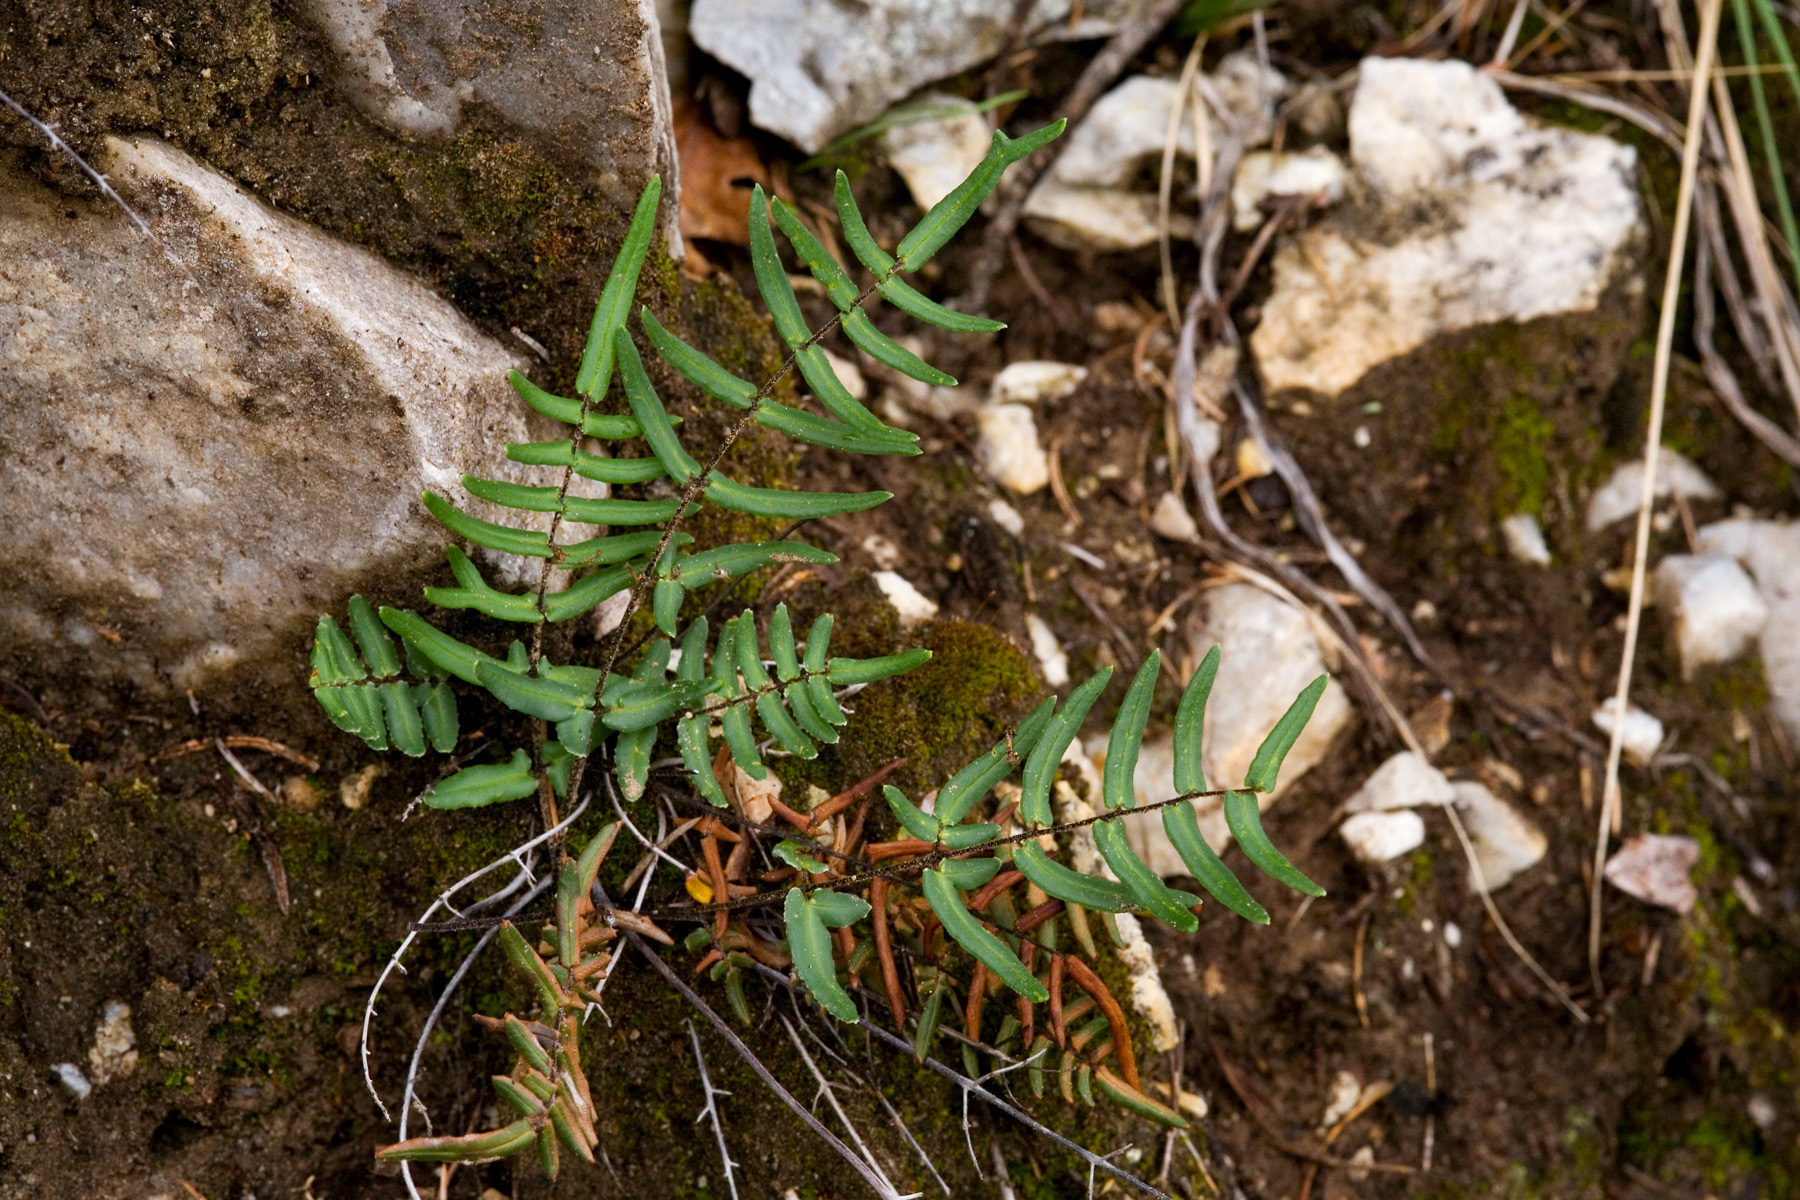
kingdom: Plantae
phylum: Tracheophyta
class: Polypodiopsida
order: Polypodiales
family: Pteridaceae
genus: Pellaea
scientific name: Pellaea atropurpurea
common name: Hairy cliffbrake
